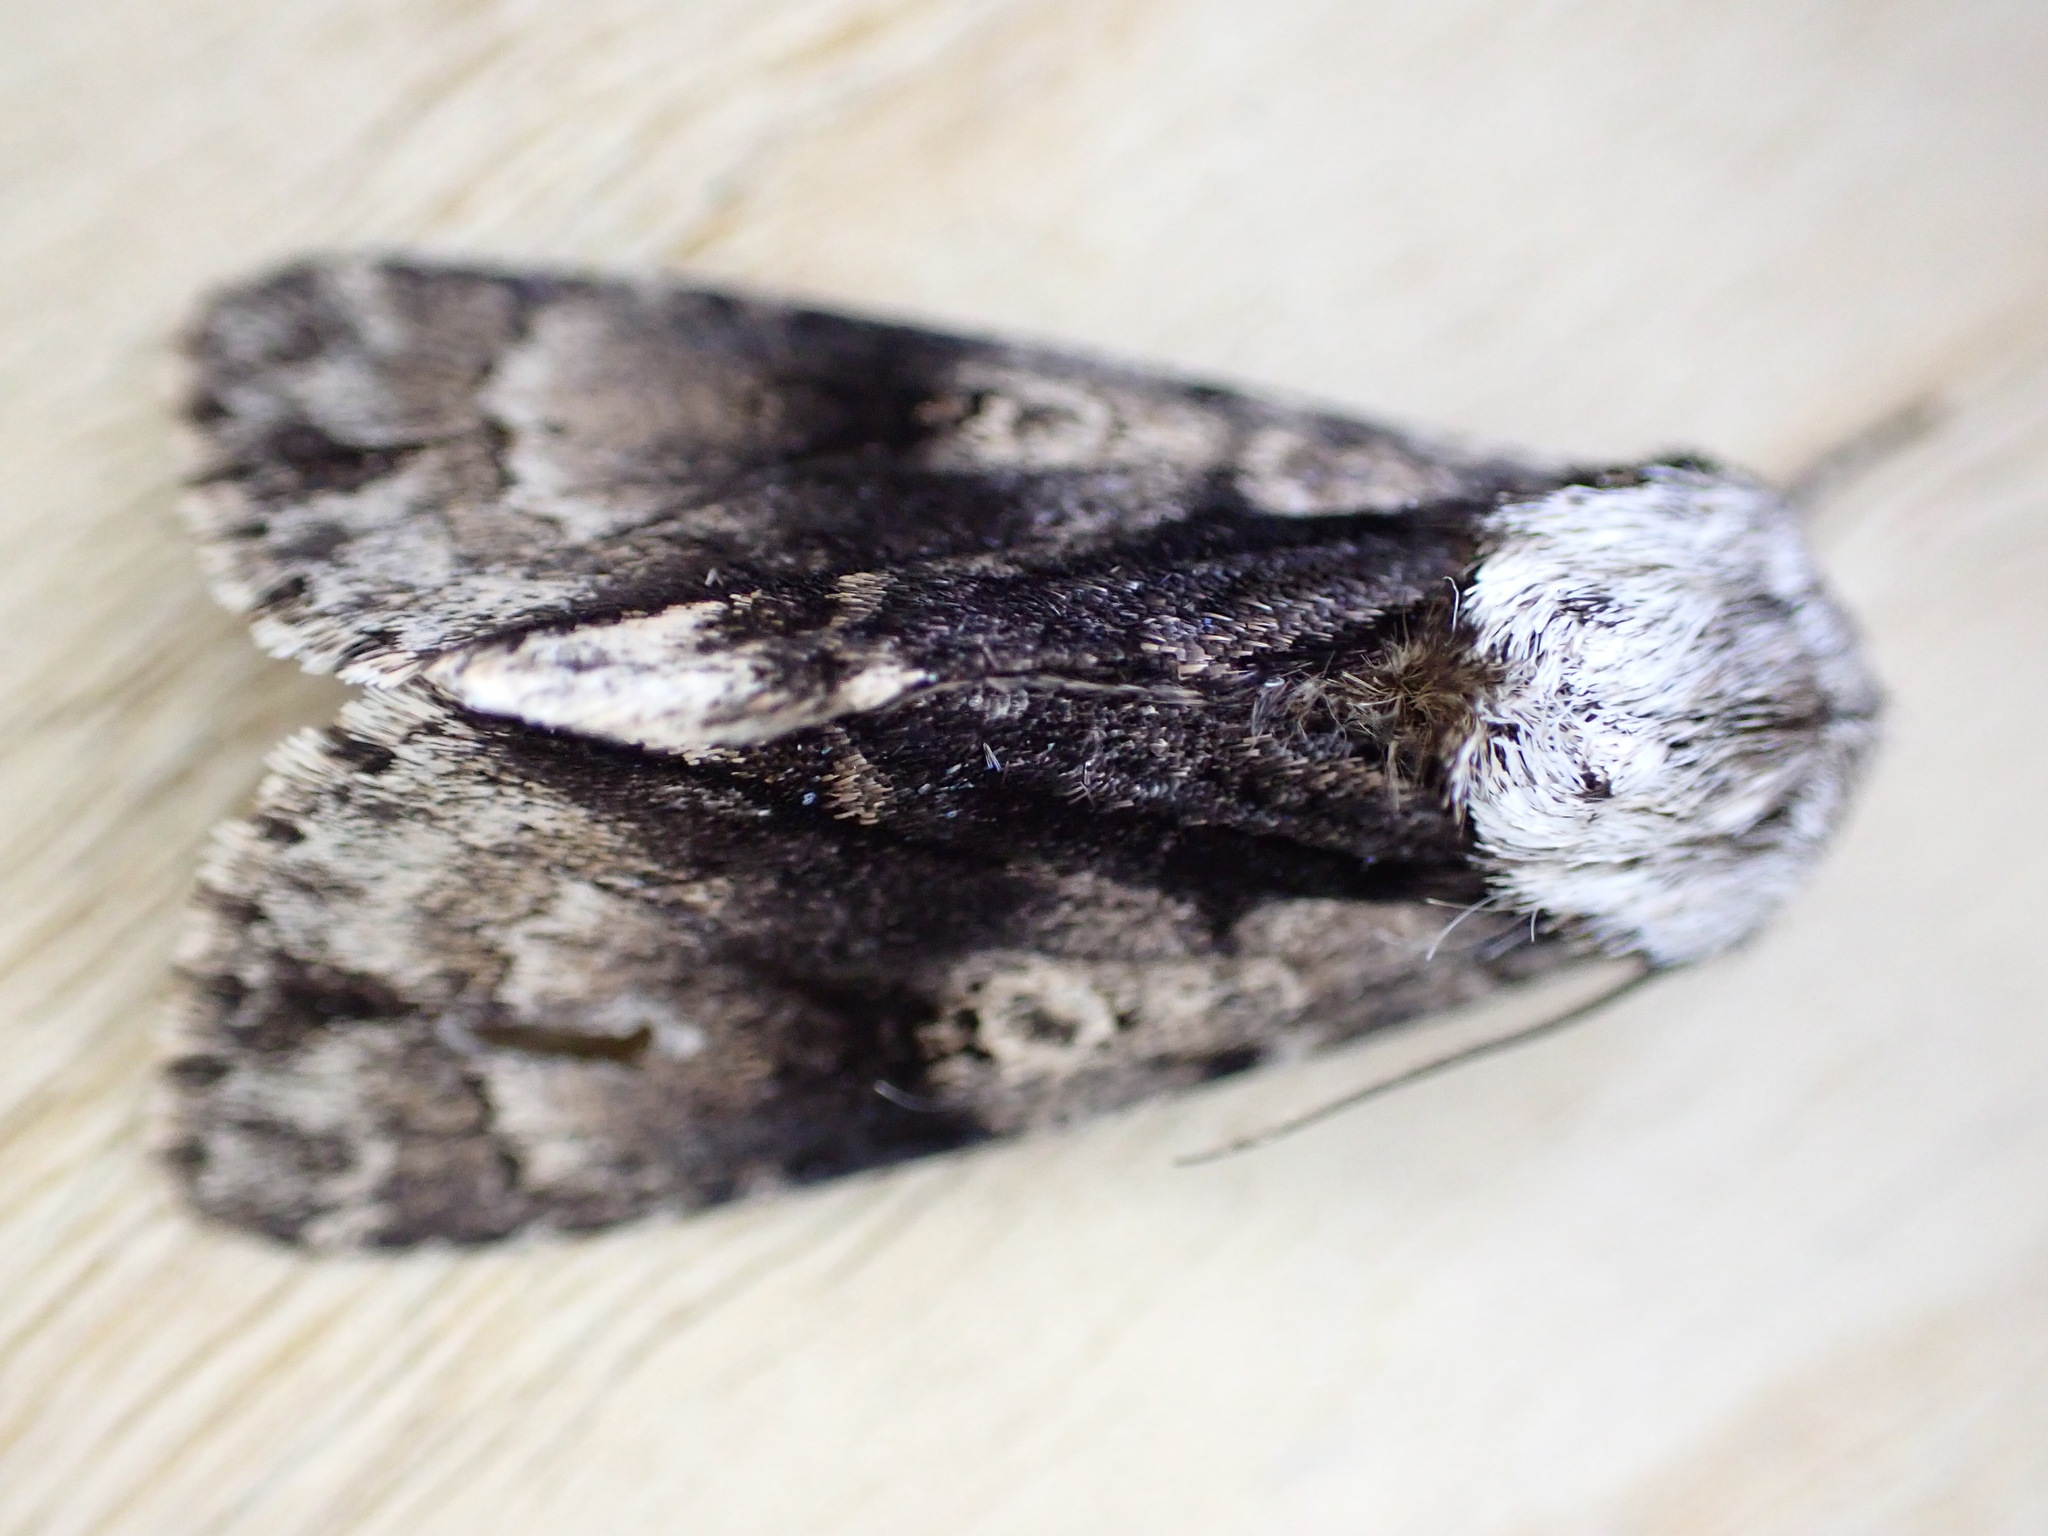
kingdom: Animalia
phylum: Arthropoda
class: Insecta
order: Lepidoptera
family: Noctuidae
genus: Acronicta
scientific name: Acronicta alni
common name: Alder moth
